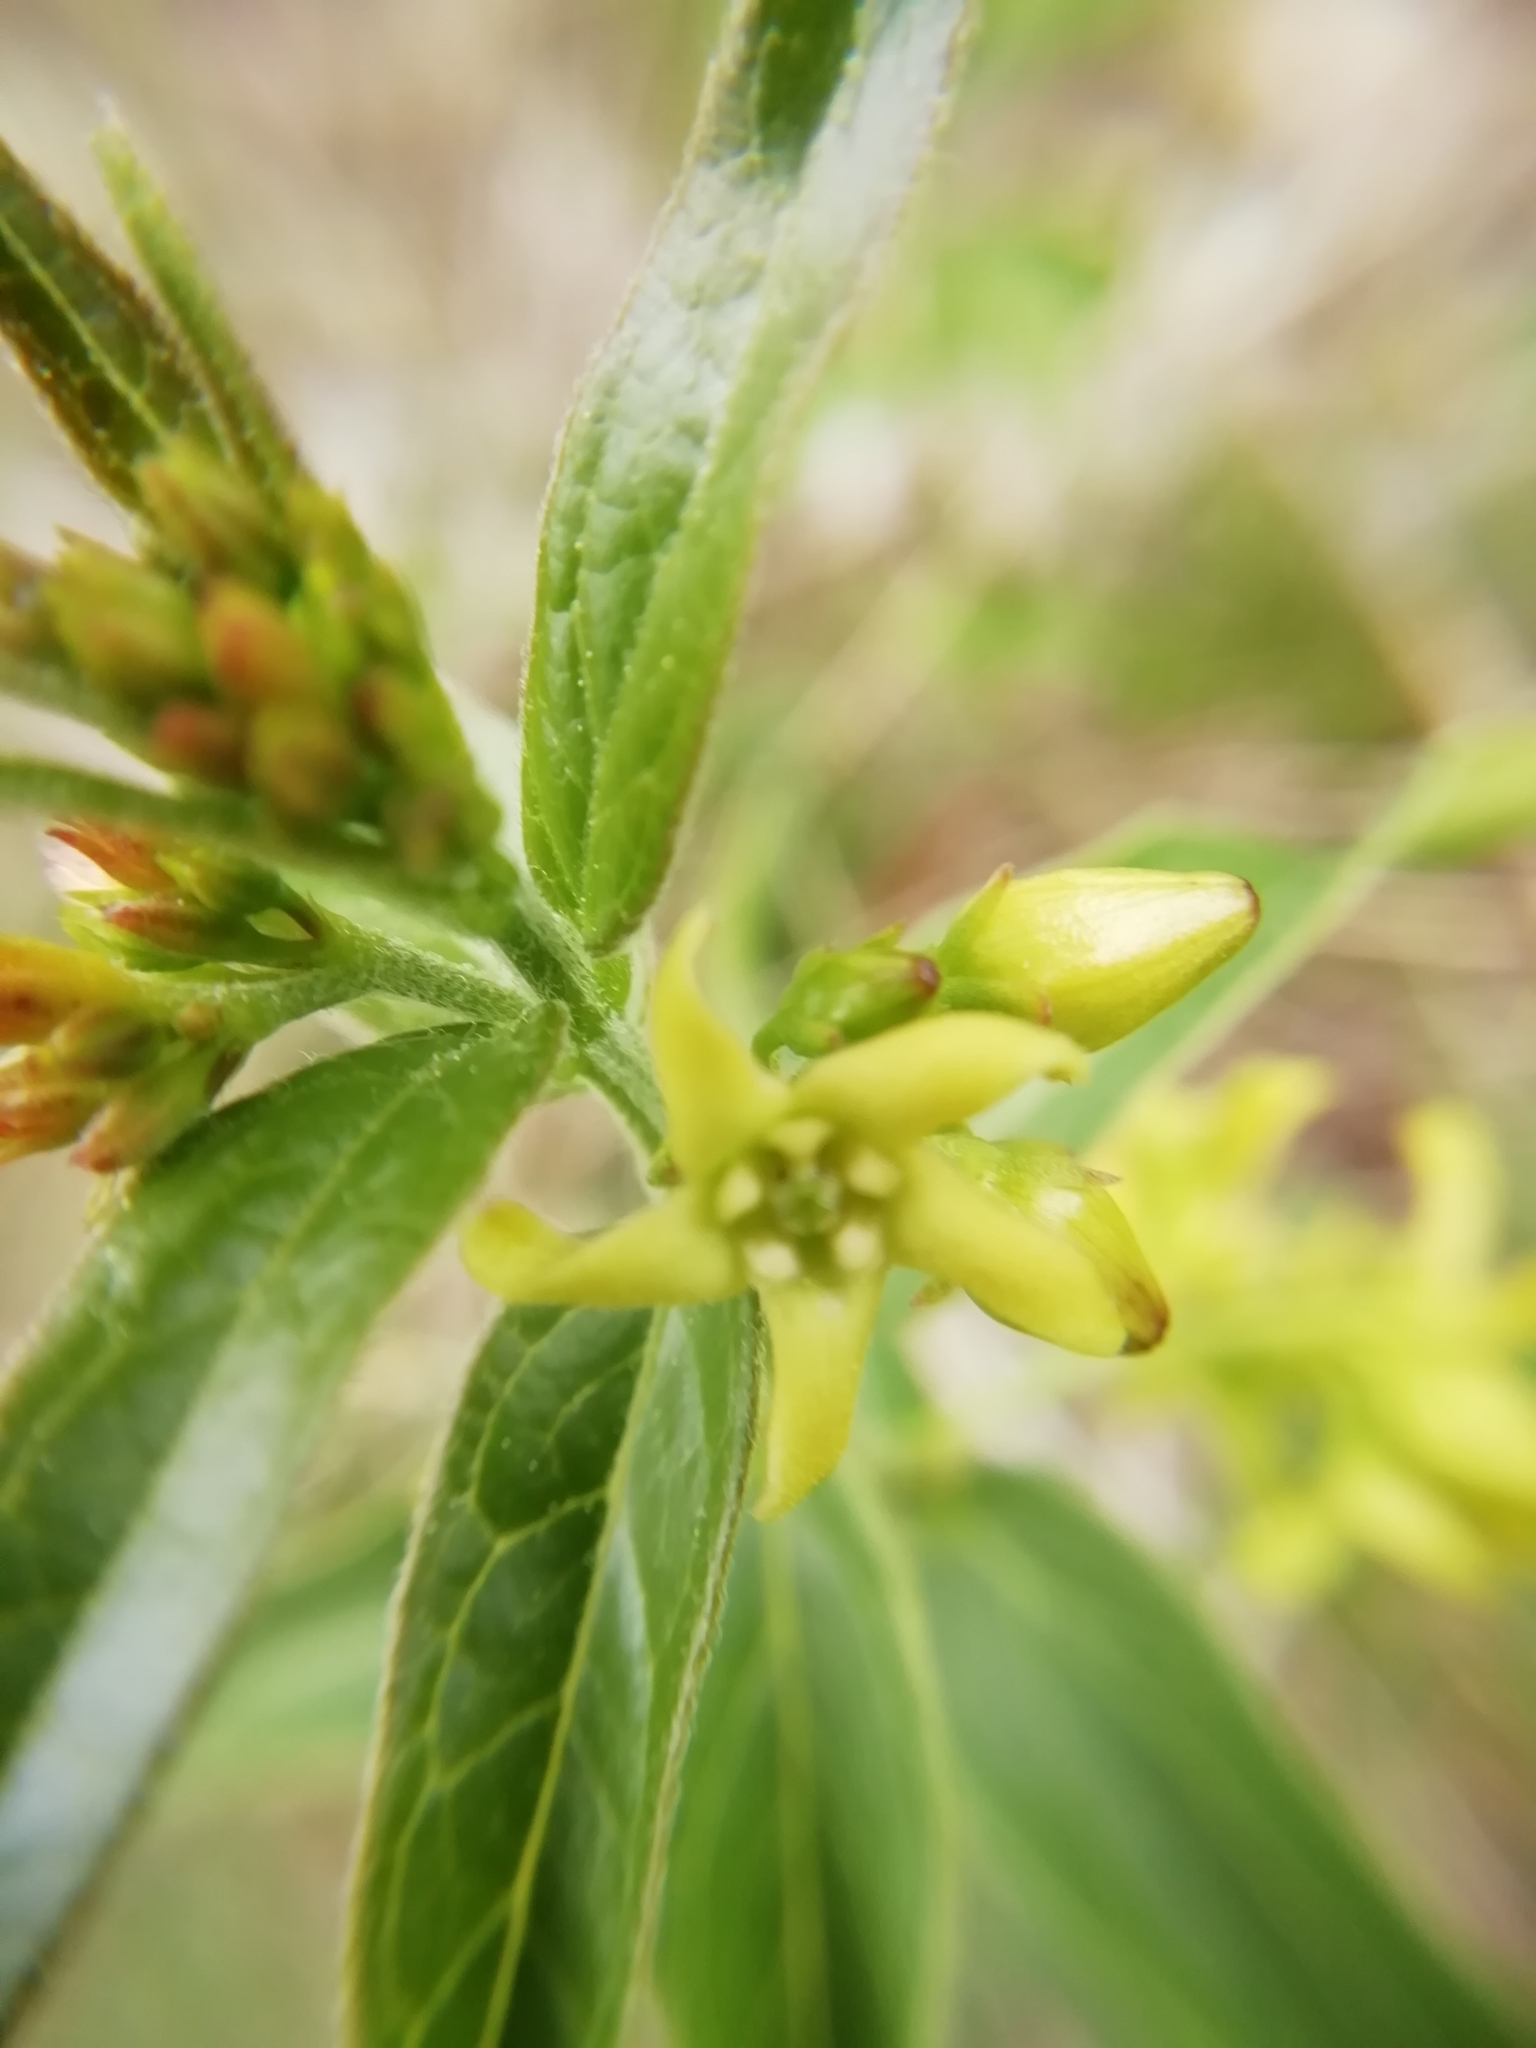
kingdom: Plantae
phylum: Tracheophyta
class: Magnoliopsida
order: Gentianales
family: Apocynaceae
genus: Vincetoxicum
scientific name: Vincetoxicum hirundinaria
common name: White swallowwort
